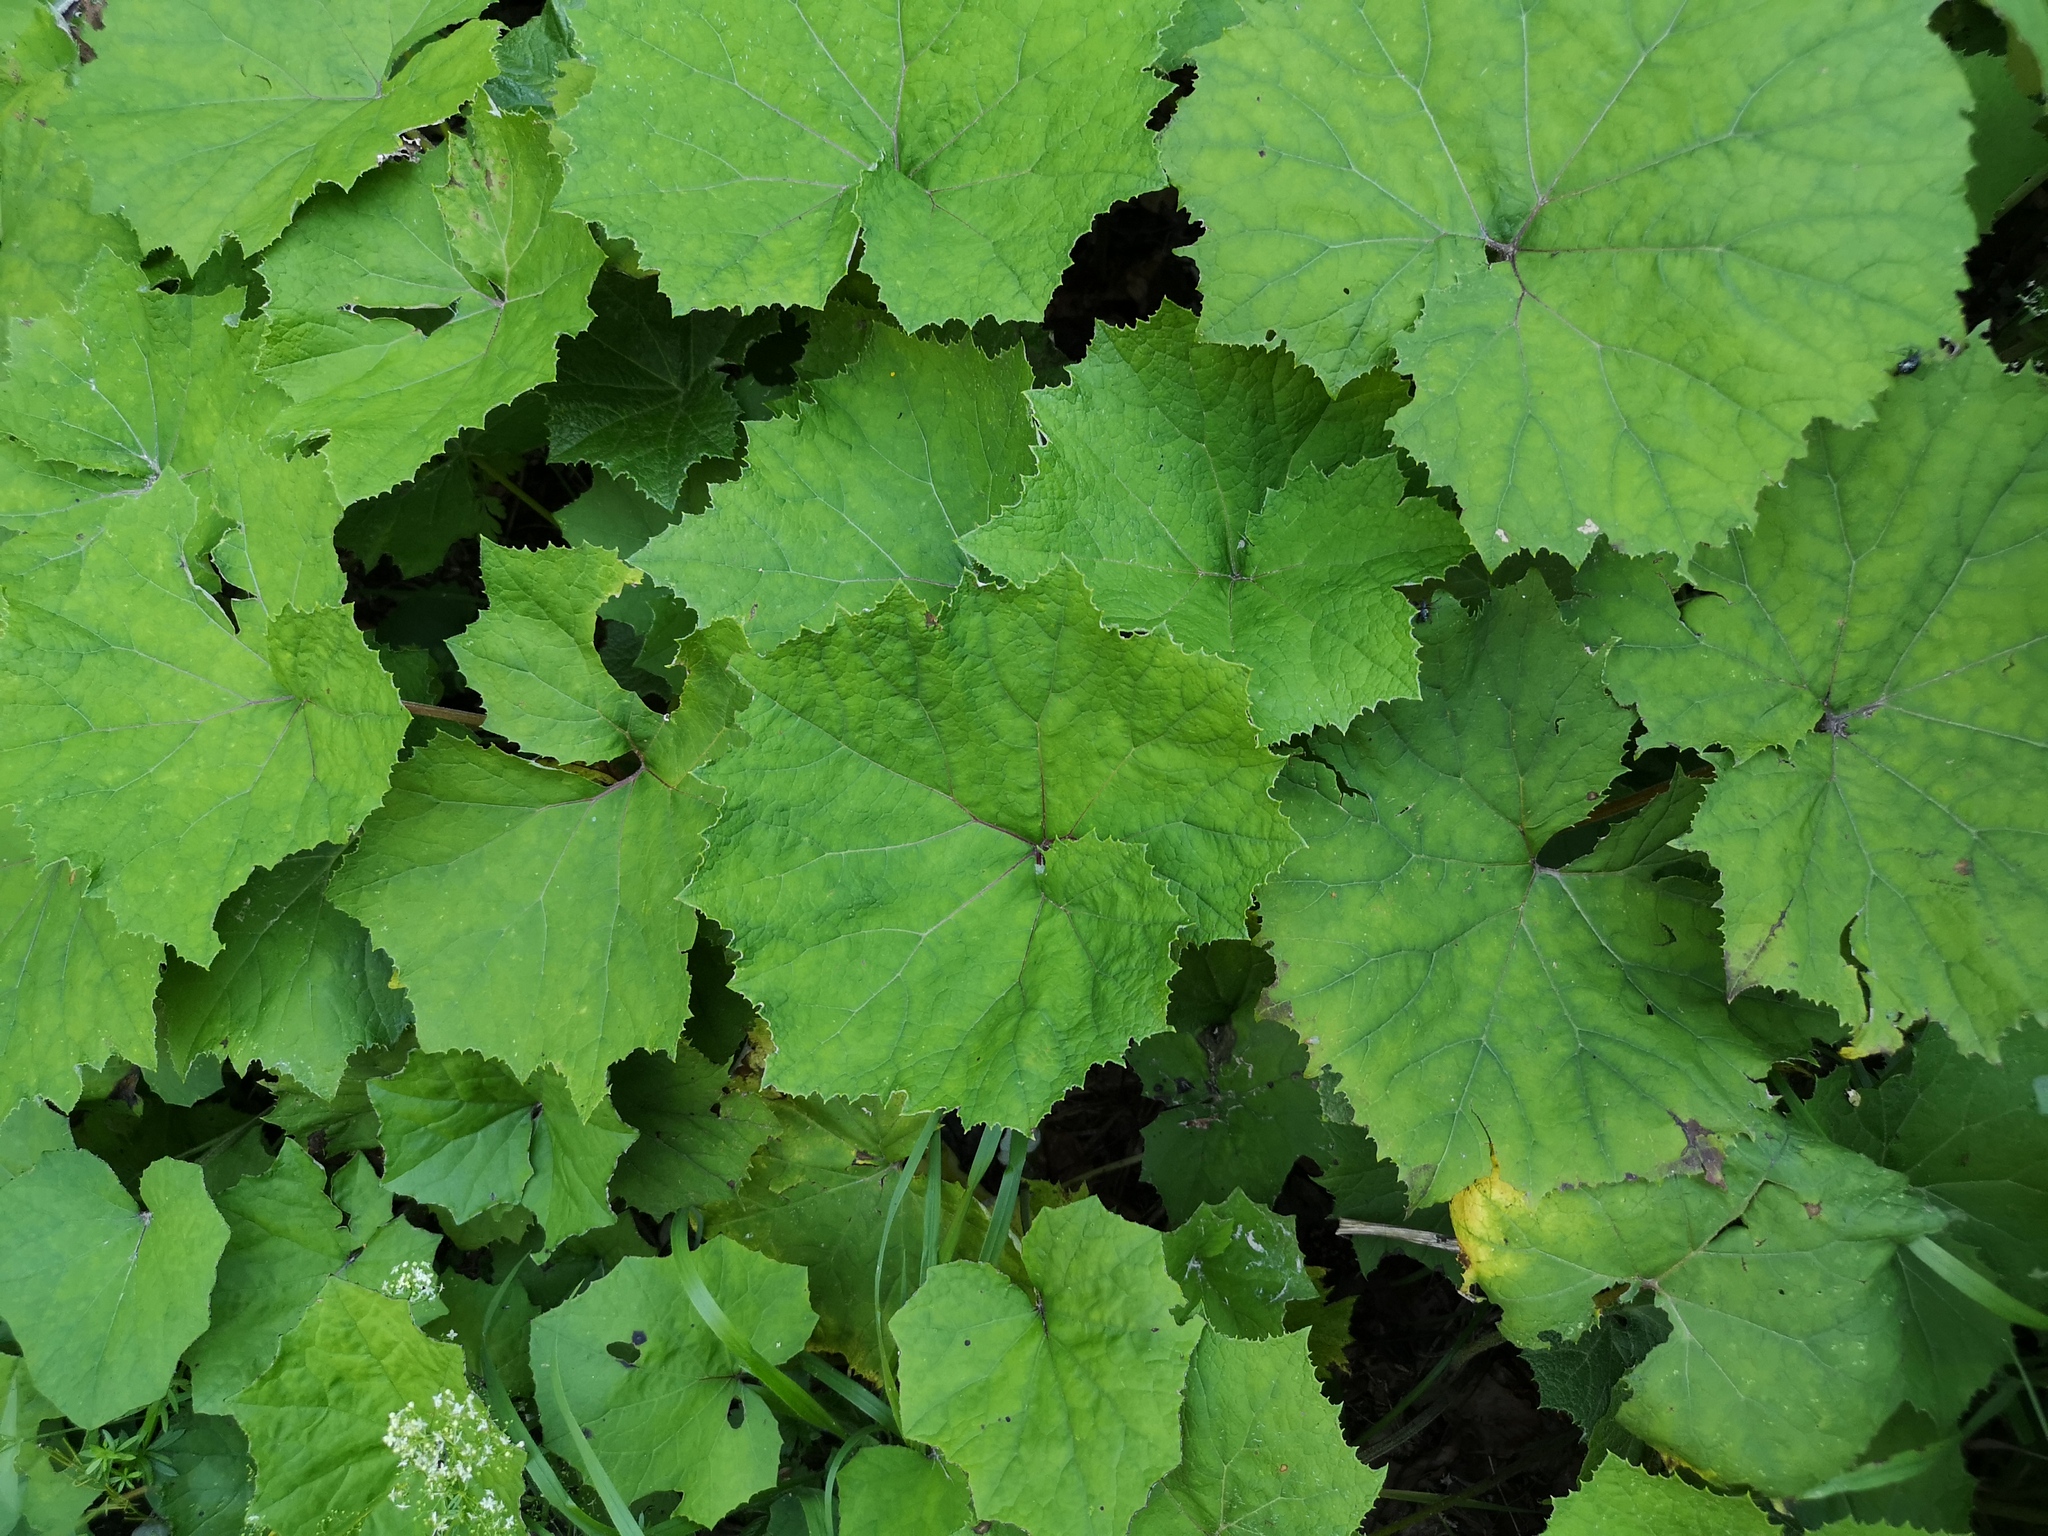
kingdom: Plantae
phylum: Tracheophyta
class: Magnoliopsida
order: Asterales
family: Asteraceae
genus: Petasites
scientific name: Petasites albus
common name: White butterbur
